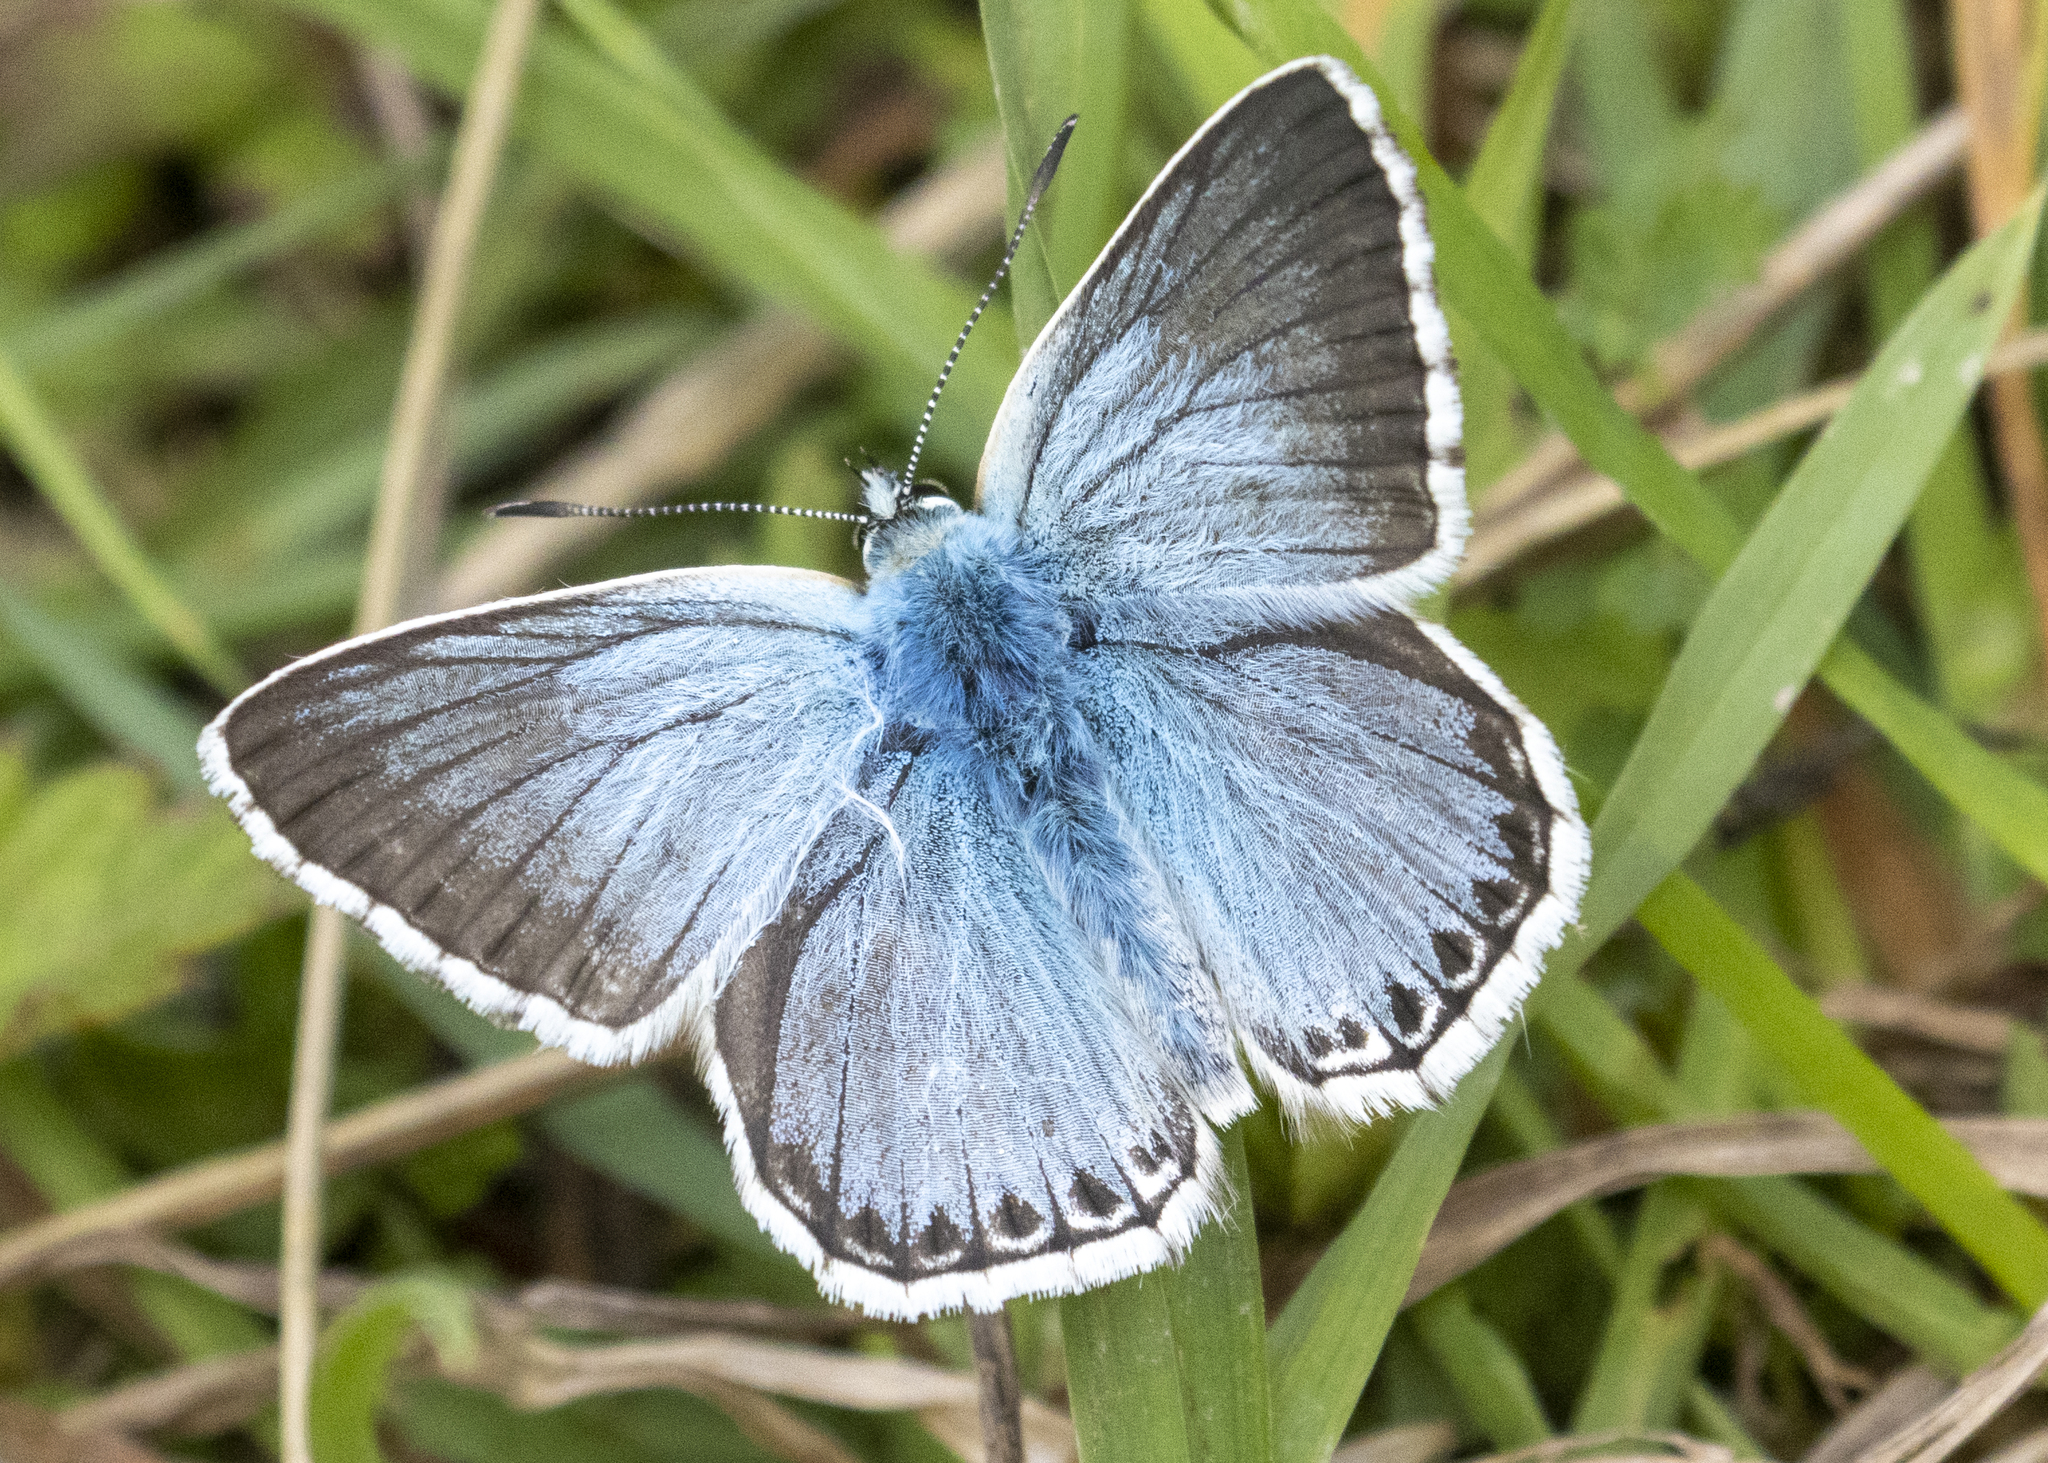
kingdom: Animalia
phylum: Arthropoda
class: Insecta
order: Lepidoptera
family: Lycaenidae
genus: Lysandra
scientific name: Lysandra coridon
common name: Chalkhill blue
